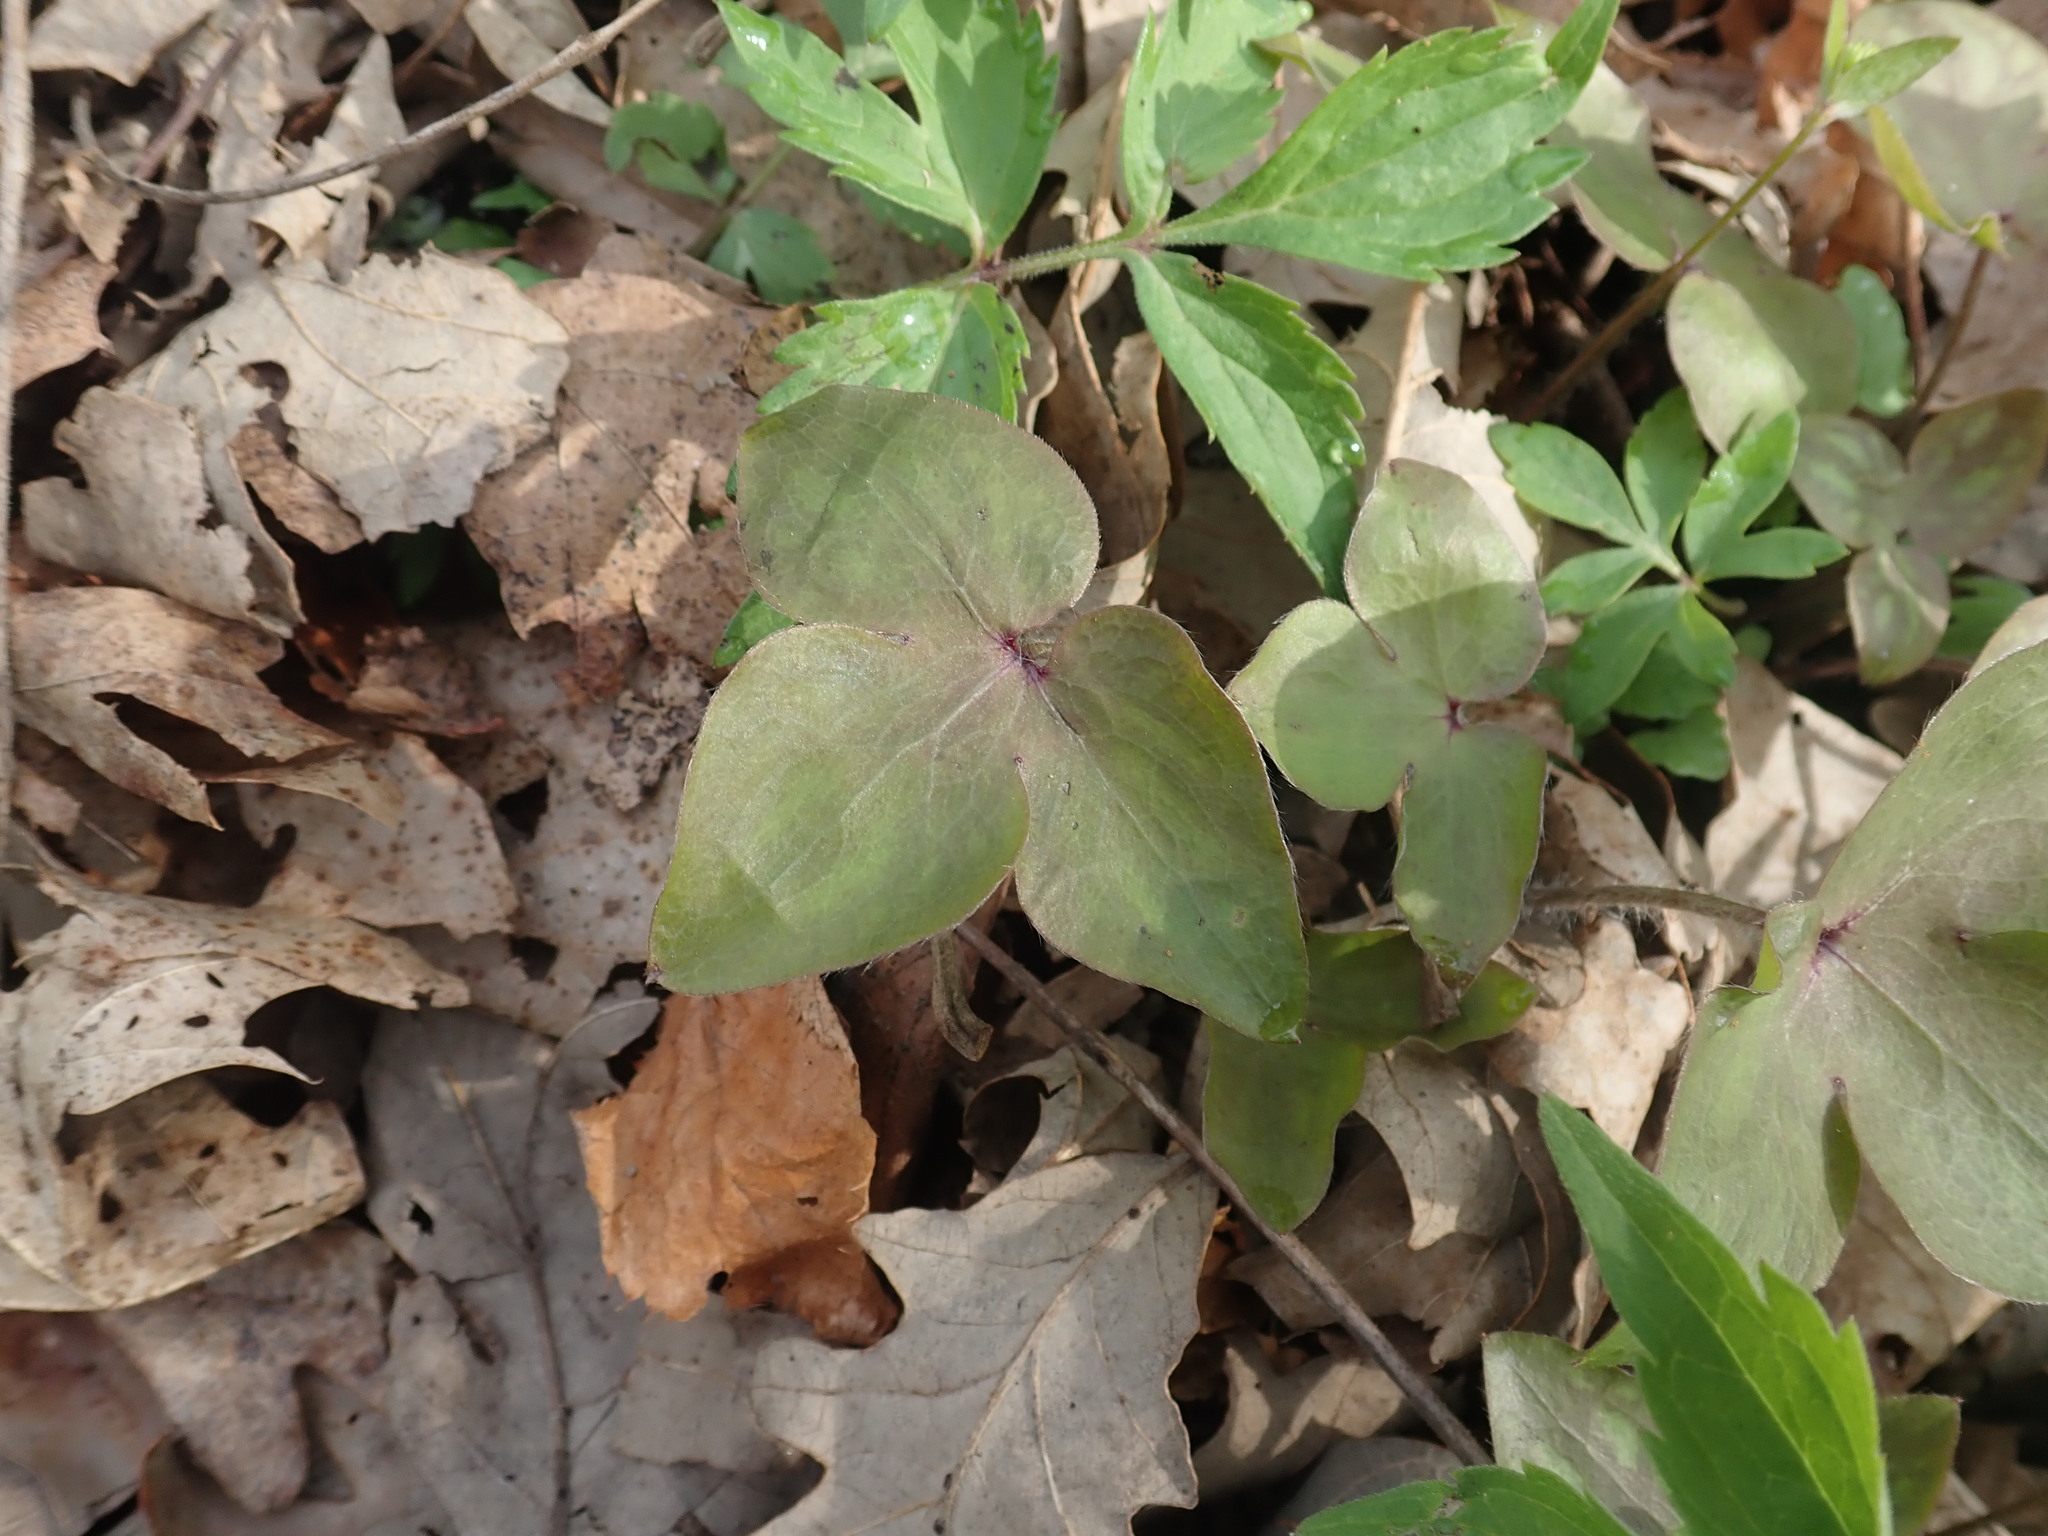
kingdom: Plantae
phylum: Tracheophyta
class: Magnoliopsida
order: Ranunculales
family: Ranunculaceae
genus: Hepatica
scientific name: Hepatica acutiloba
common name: Sharp-lobed hepatica
